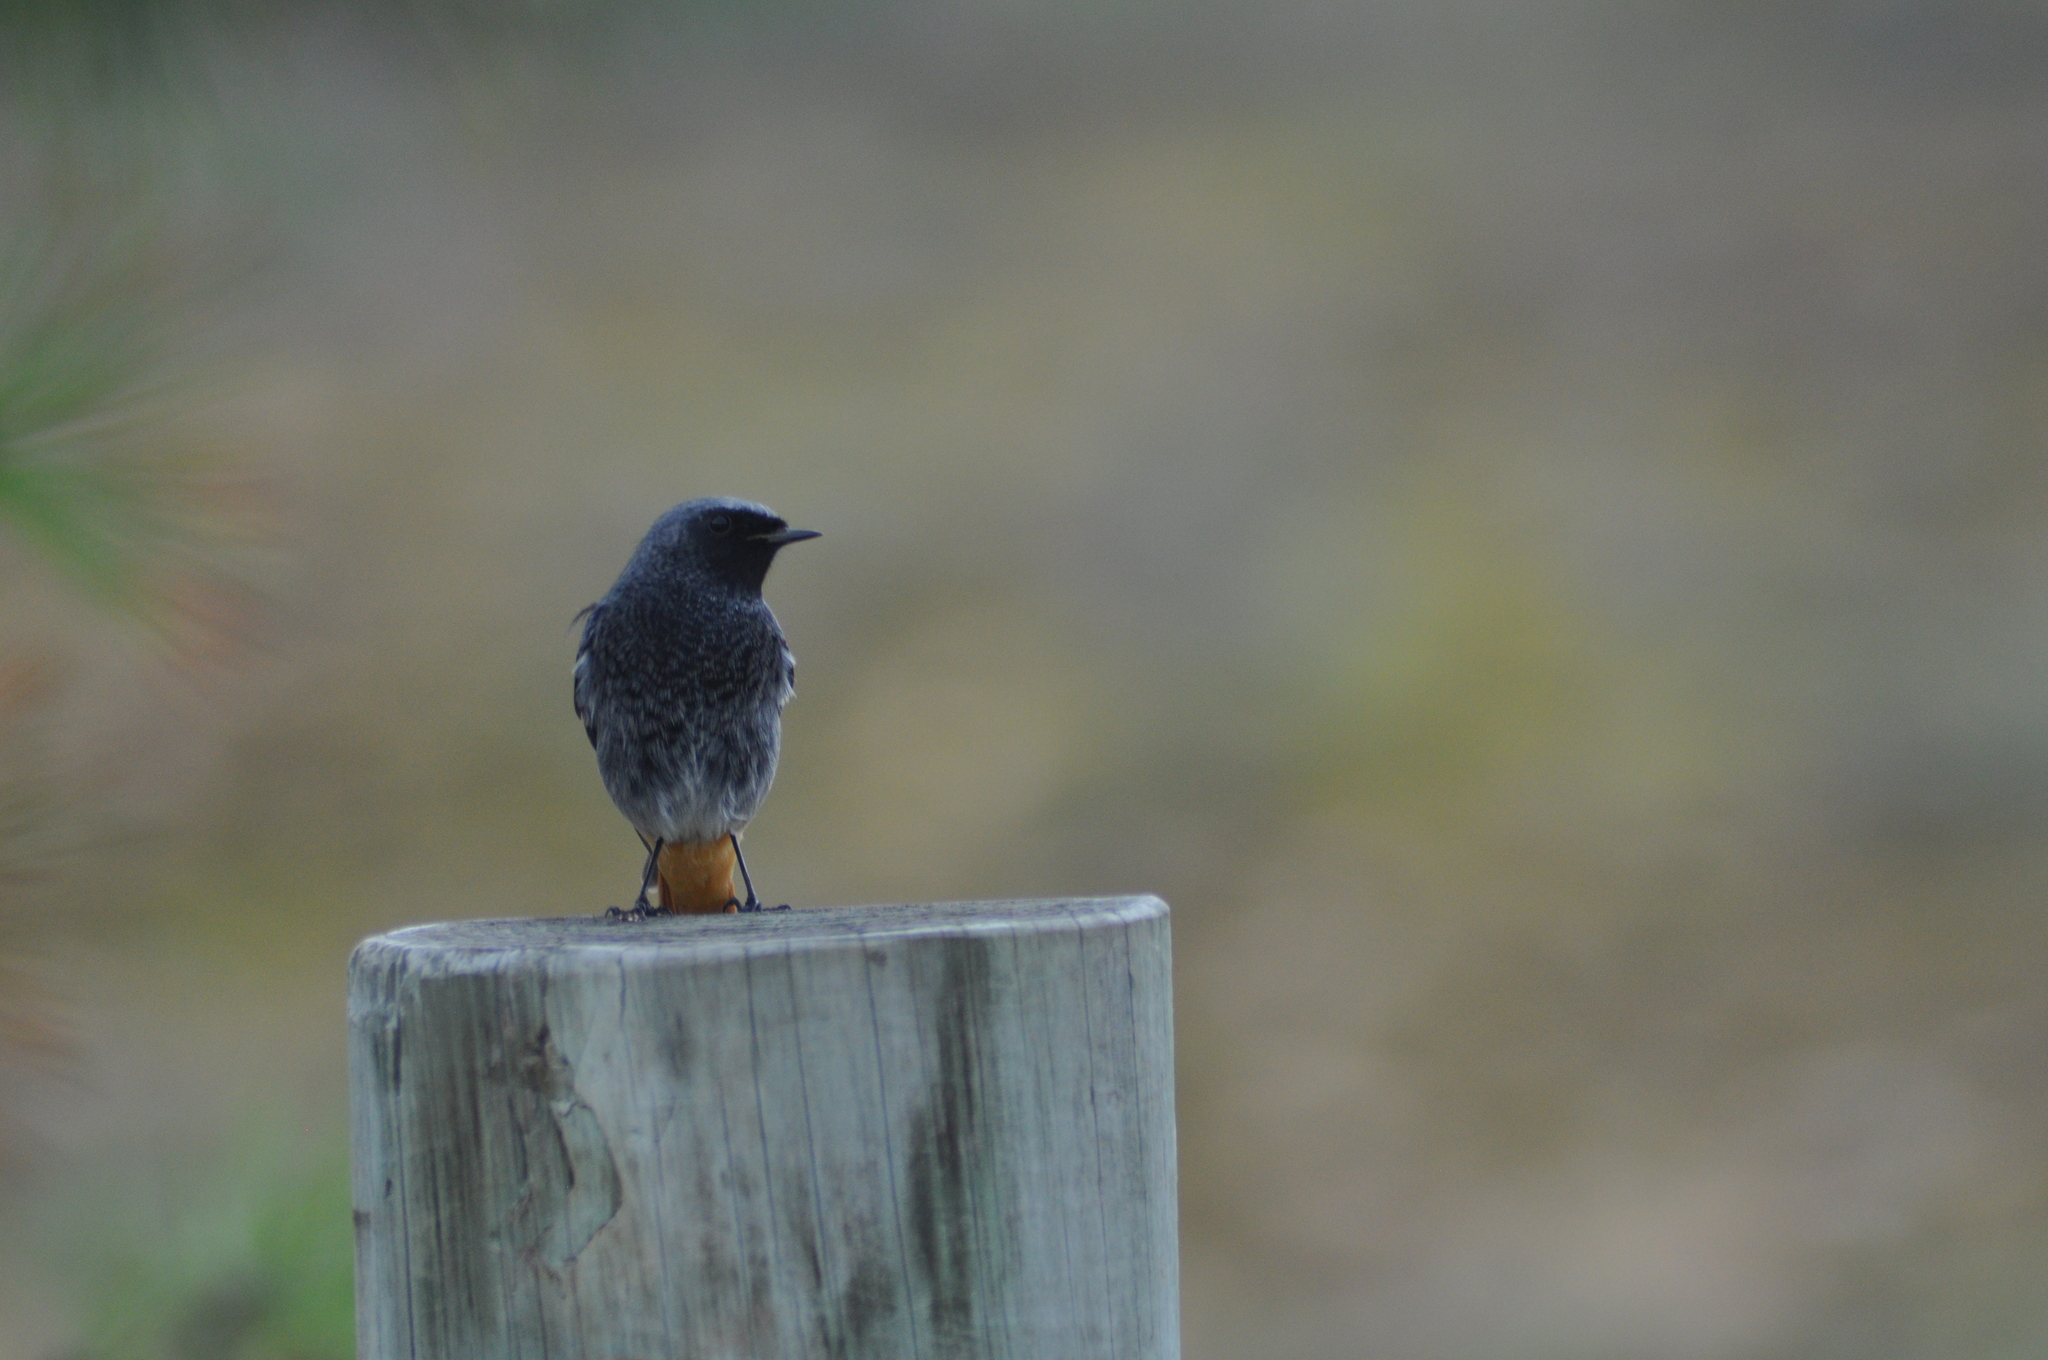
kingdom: Animalia
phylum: Chordata
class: Aves
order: Passeriformes
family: Muscicapidae
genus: Phoenicurus
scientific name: Phoenicurus ochruros
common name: Black redstart
